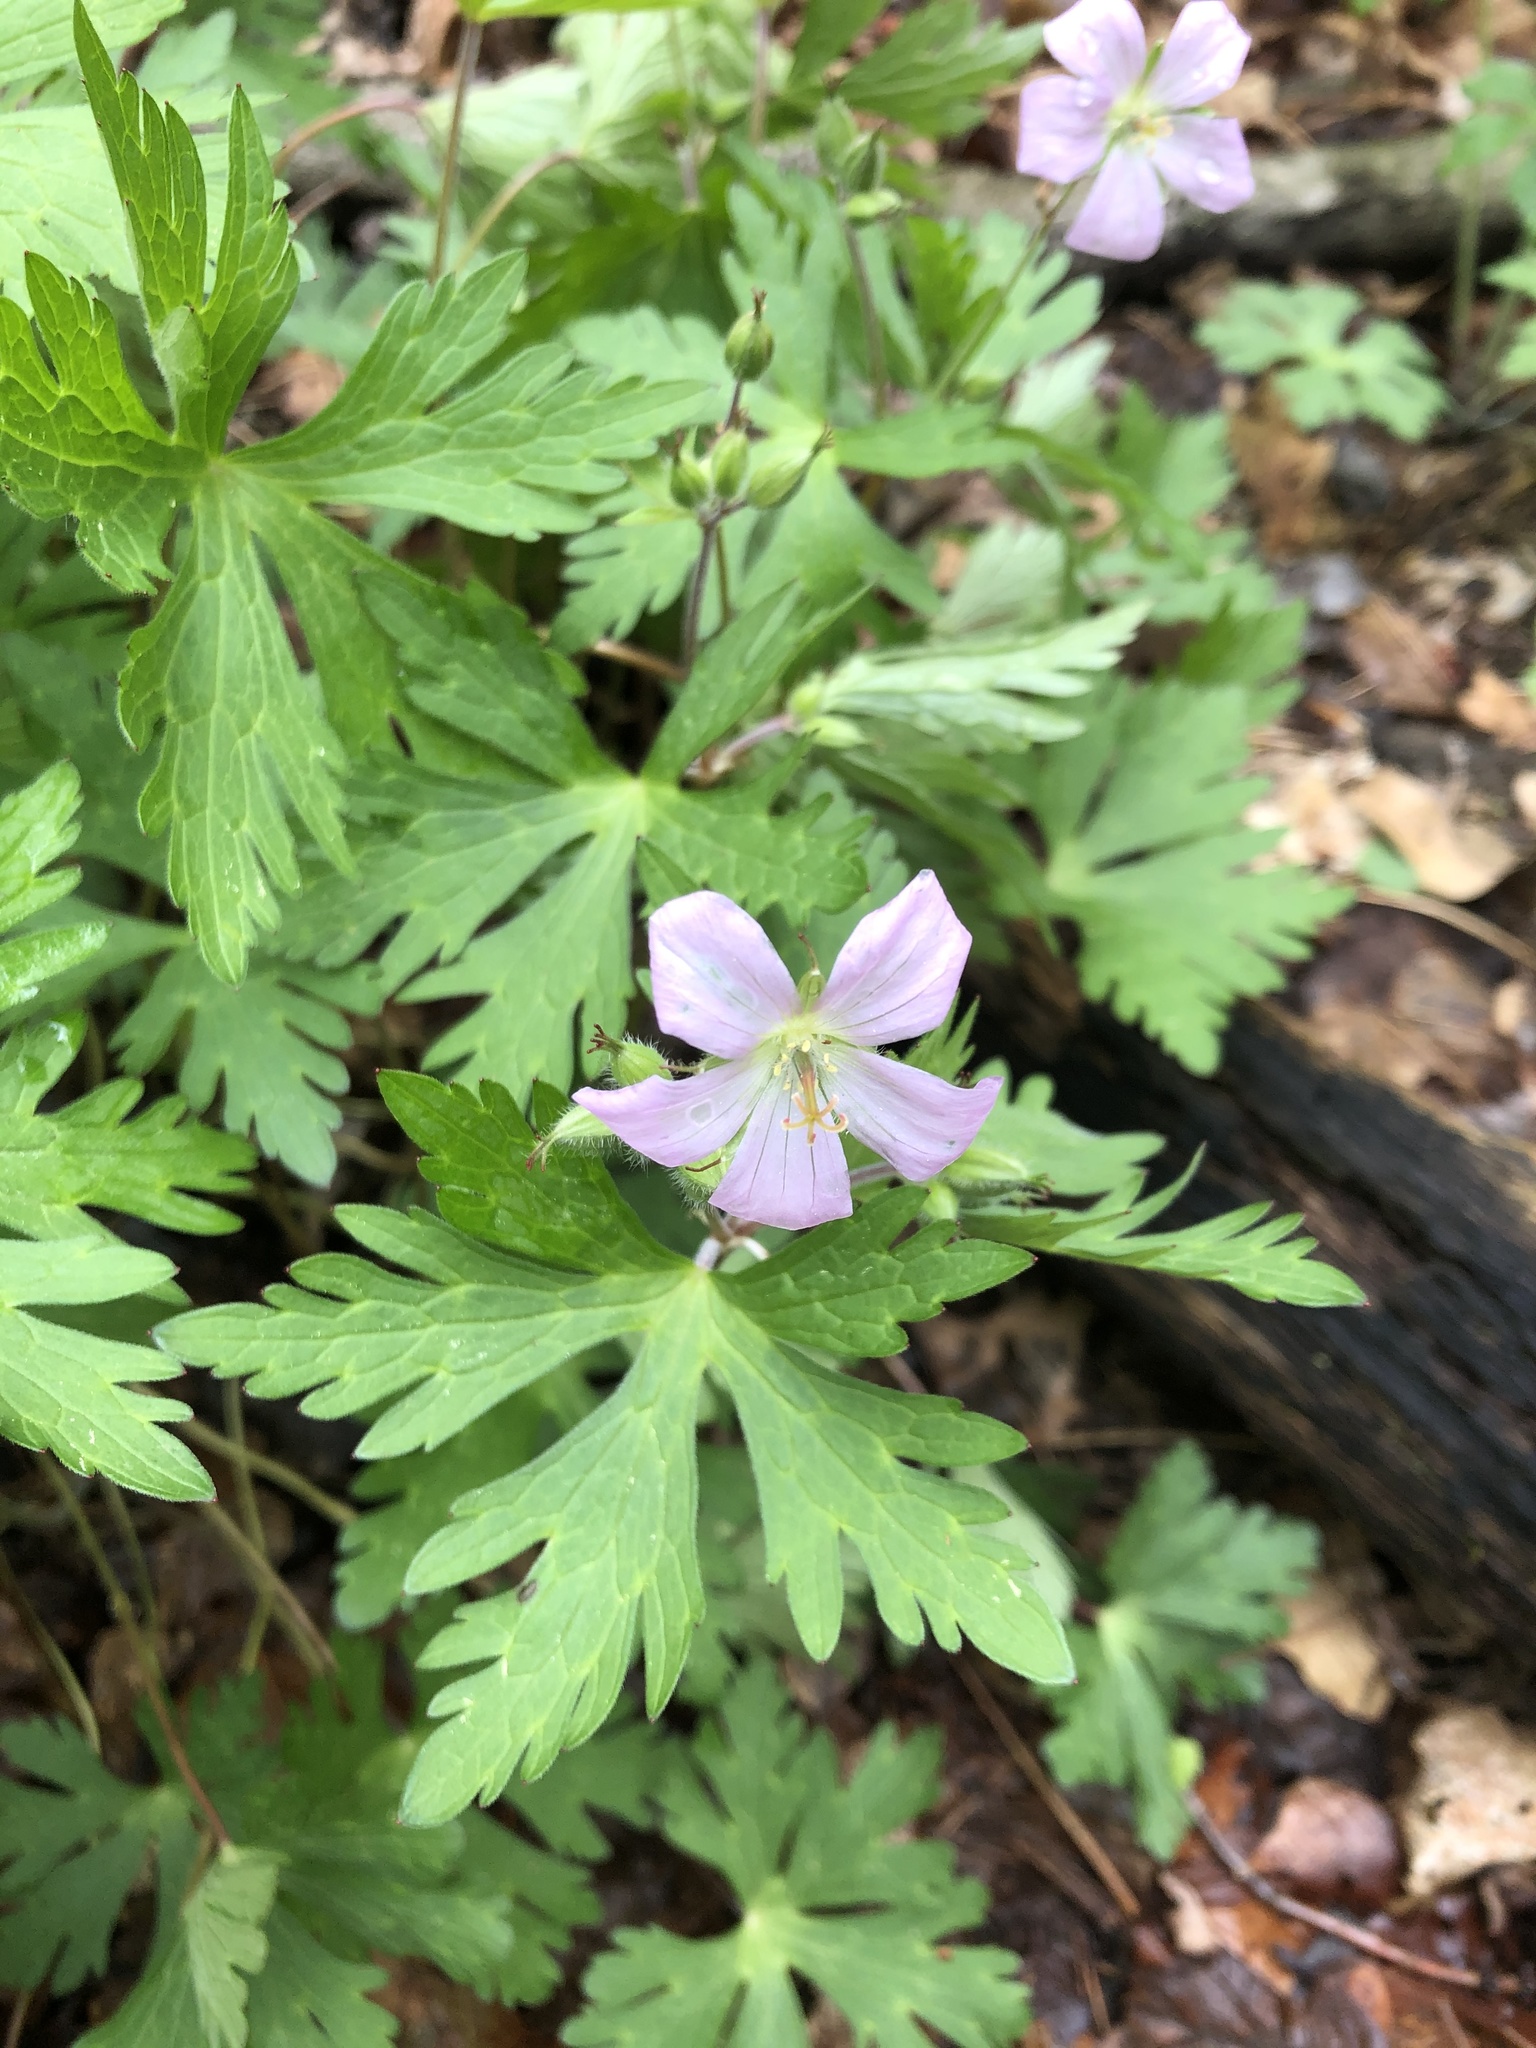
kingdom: Plantae
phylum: Tracheophyta
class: Magnoliopsida
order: Geraniales
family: Geraniaceae
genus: Geranium
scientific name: Geranium maculatum
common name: Spotted geranium
